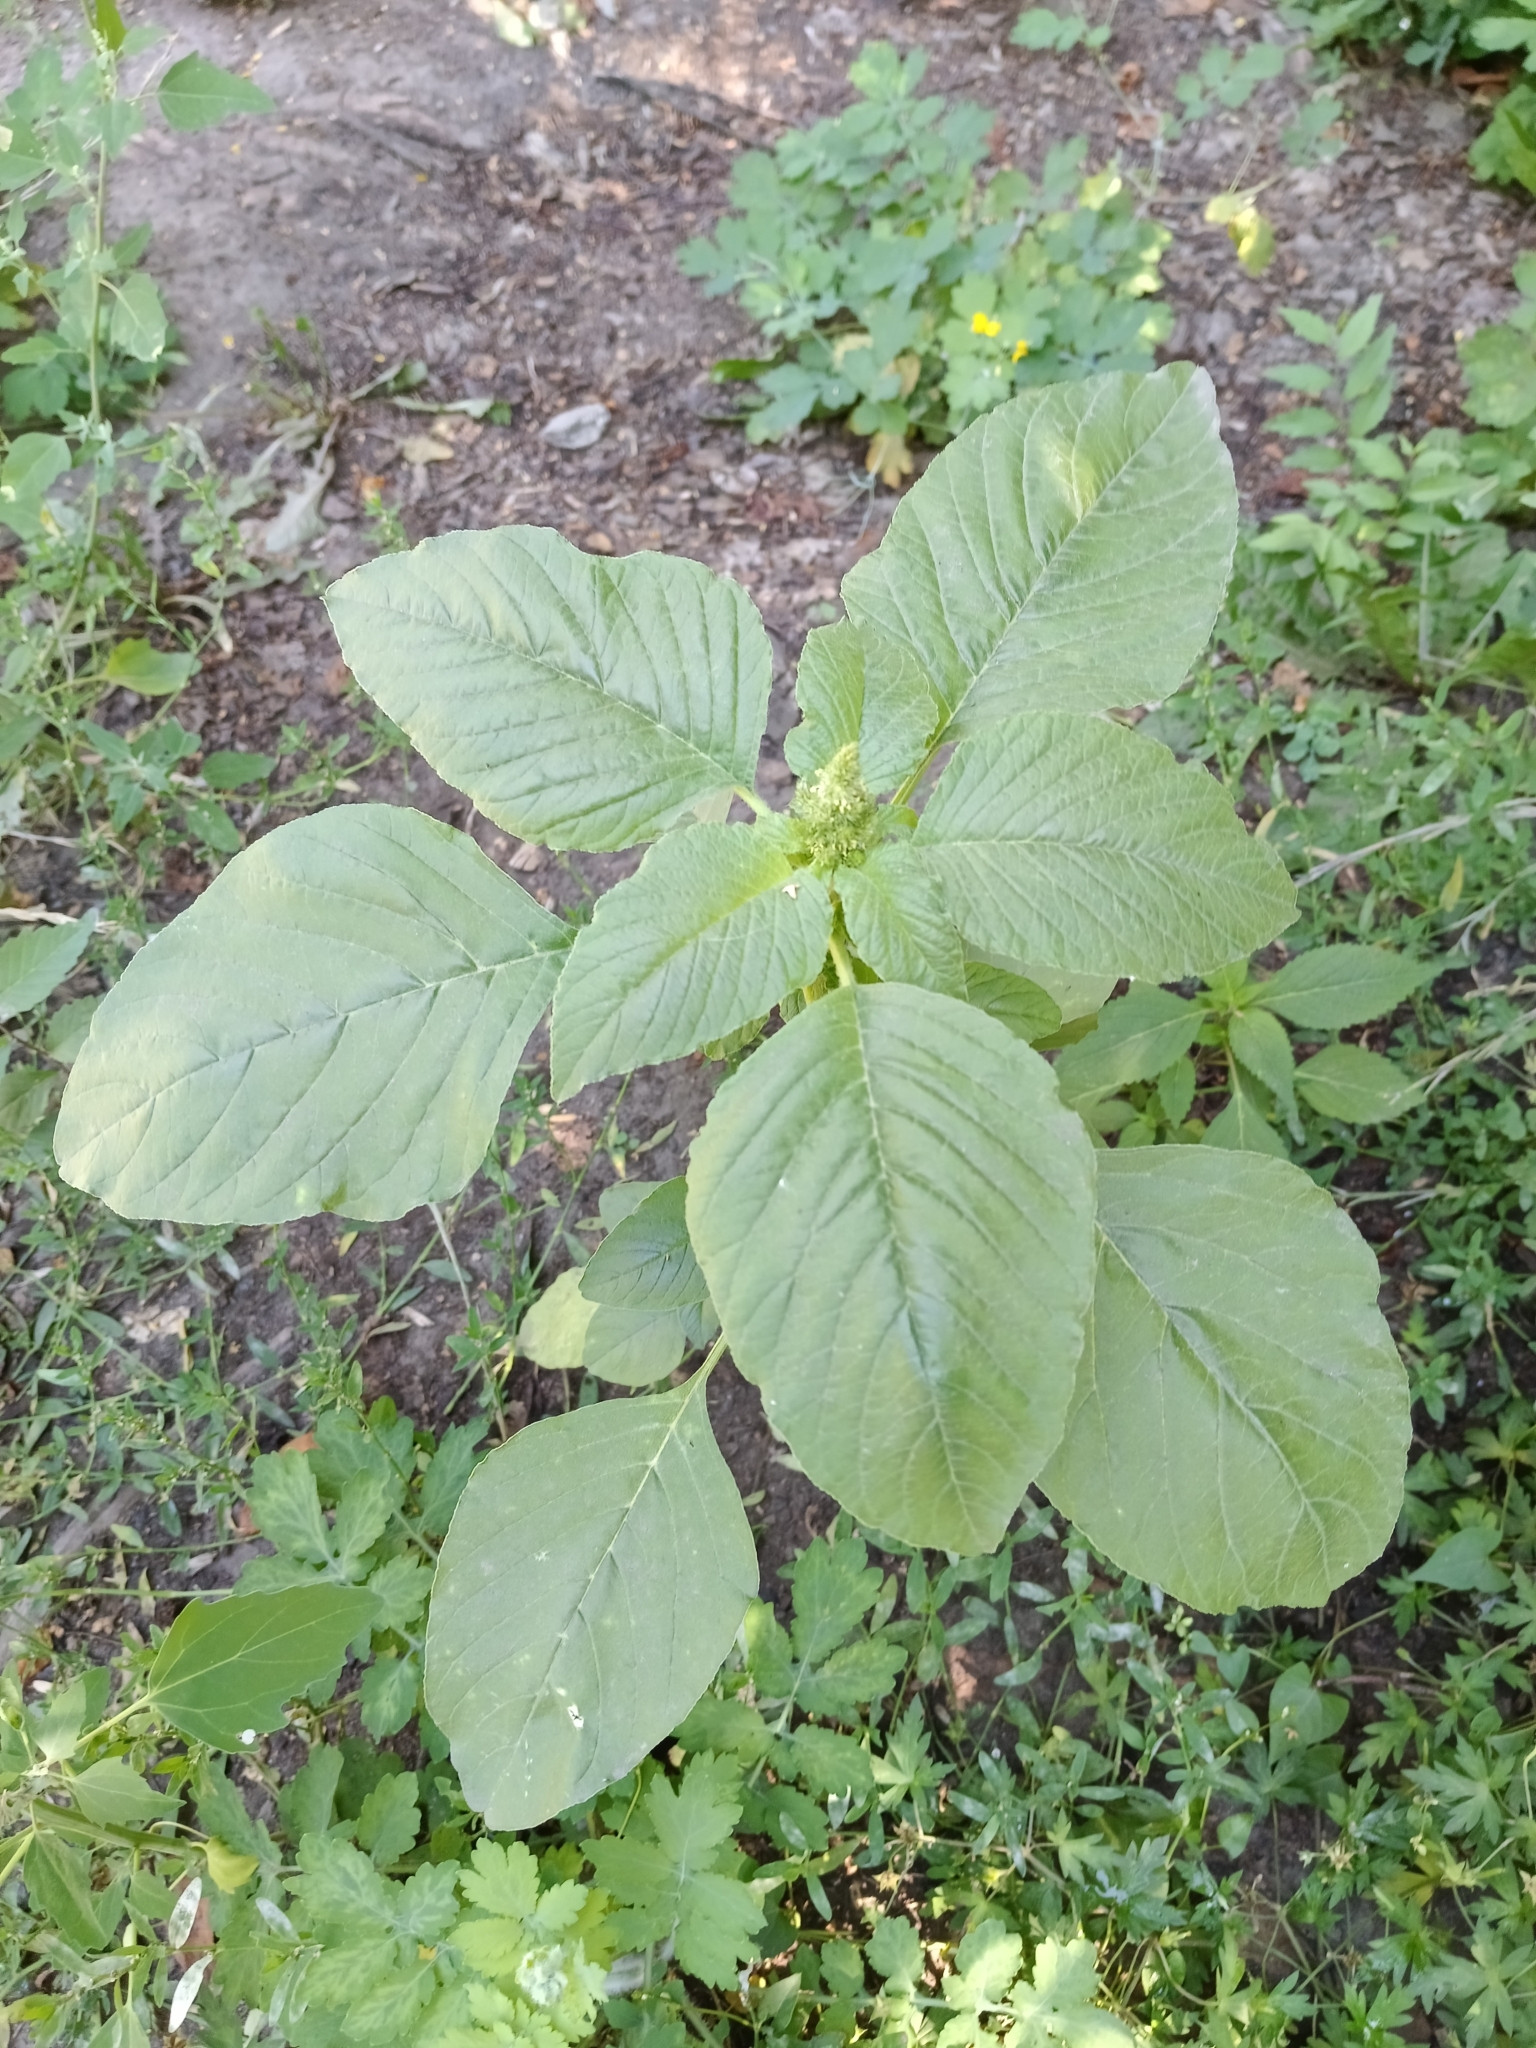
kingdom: Plantae
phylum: Tracheophyta
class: Magnoliopsida
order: Caryophyllales
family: Amaranthaceae
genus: Amaranthus
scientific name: Amaranthus retroflexus
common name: Redroot amaranth
